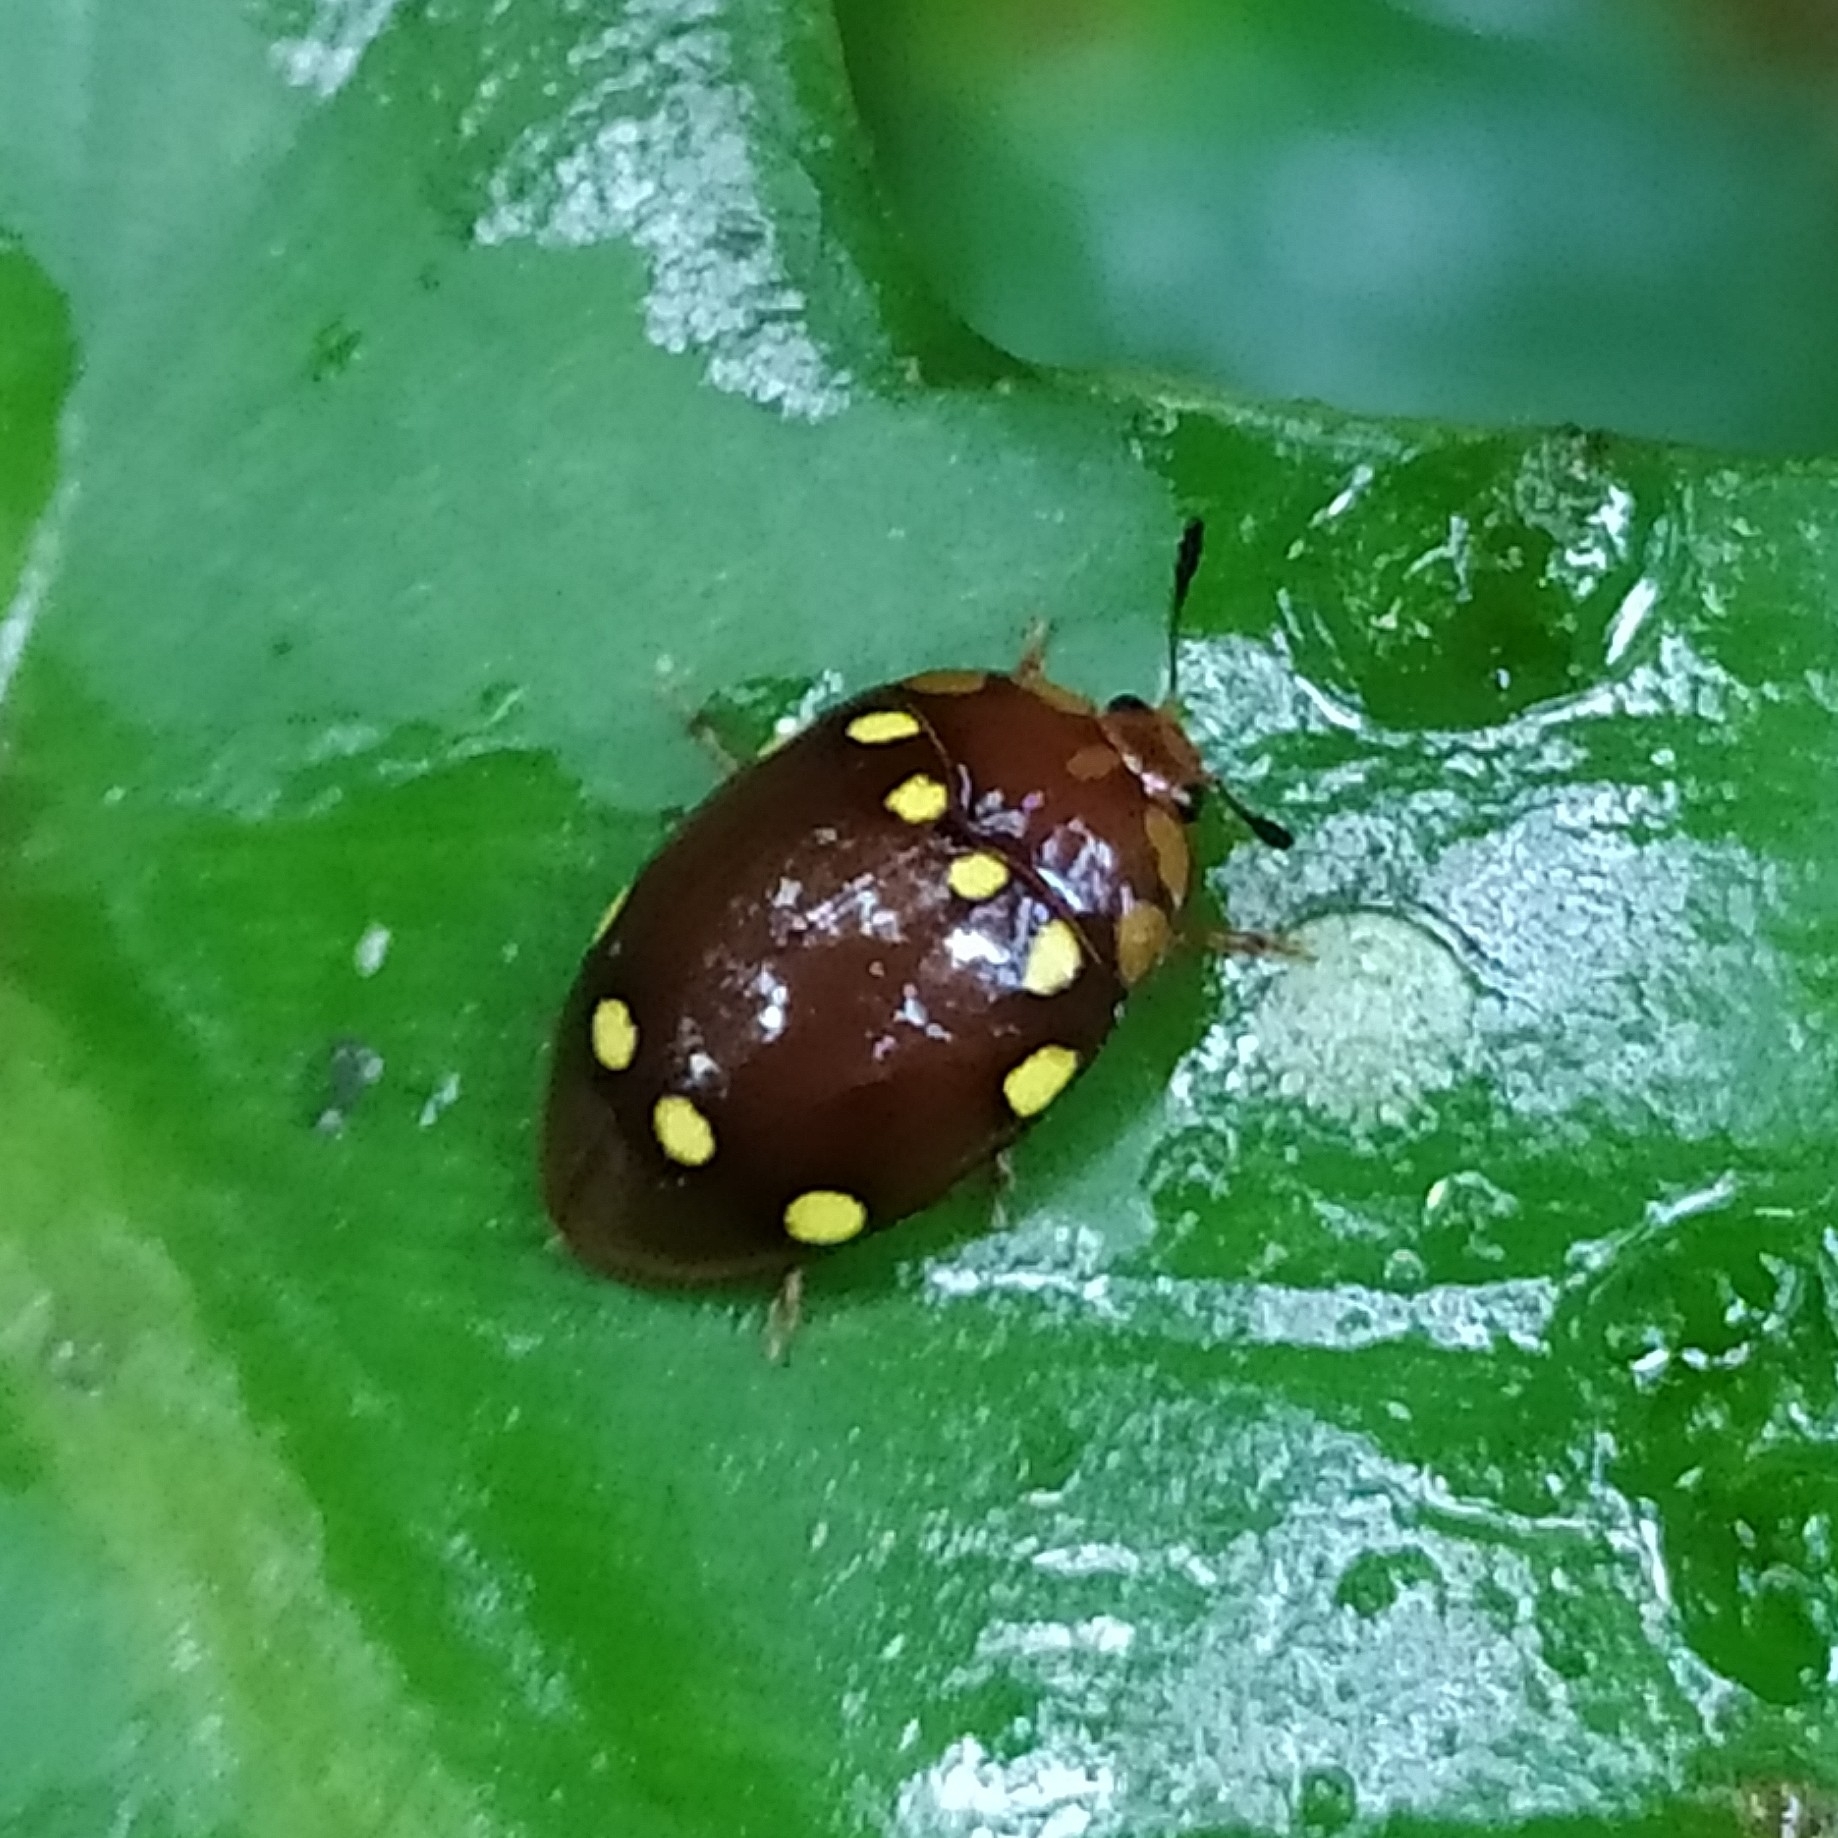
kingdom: Animalia
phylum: Arthropoda
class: Insecta
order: Coleoptera
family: Erotylidae
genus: Iphiclus
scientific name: Iphiclus moniliferus
